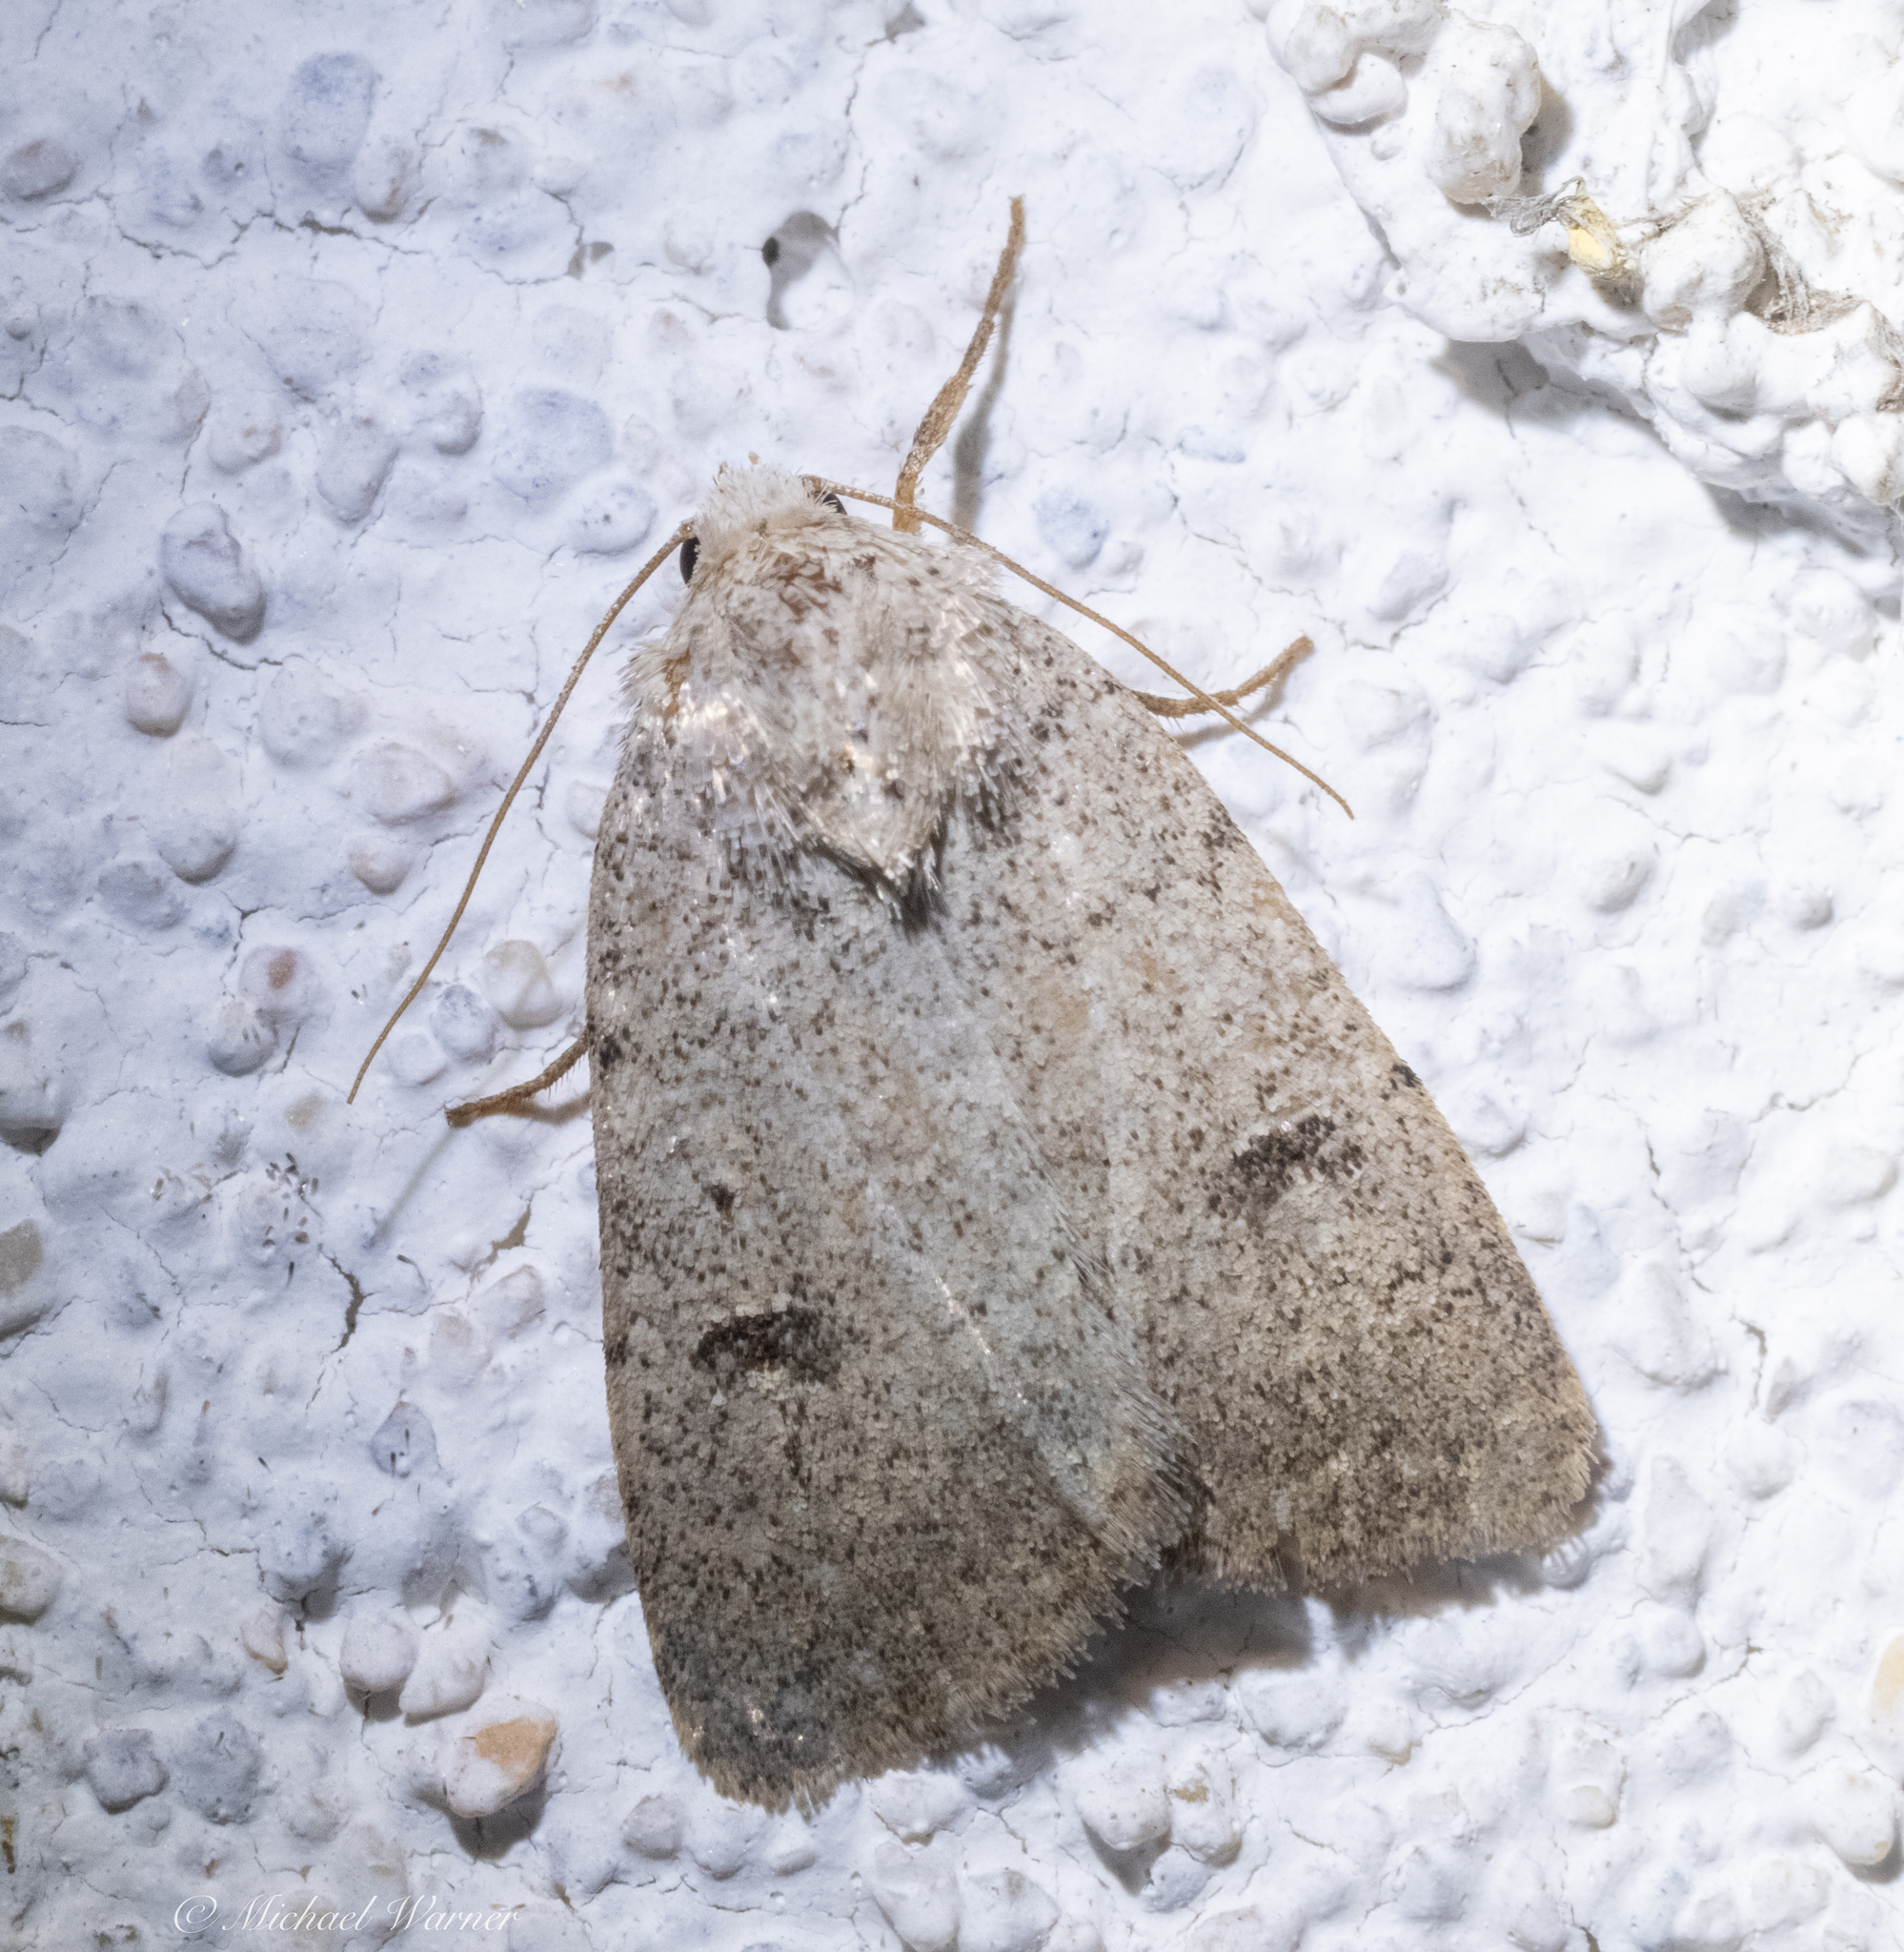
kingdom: Animalia
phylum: Arthropoda
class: Insecta
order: Lepidoptera
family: Noctuidae
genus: Caradrina
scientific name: Caradrina montana
